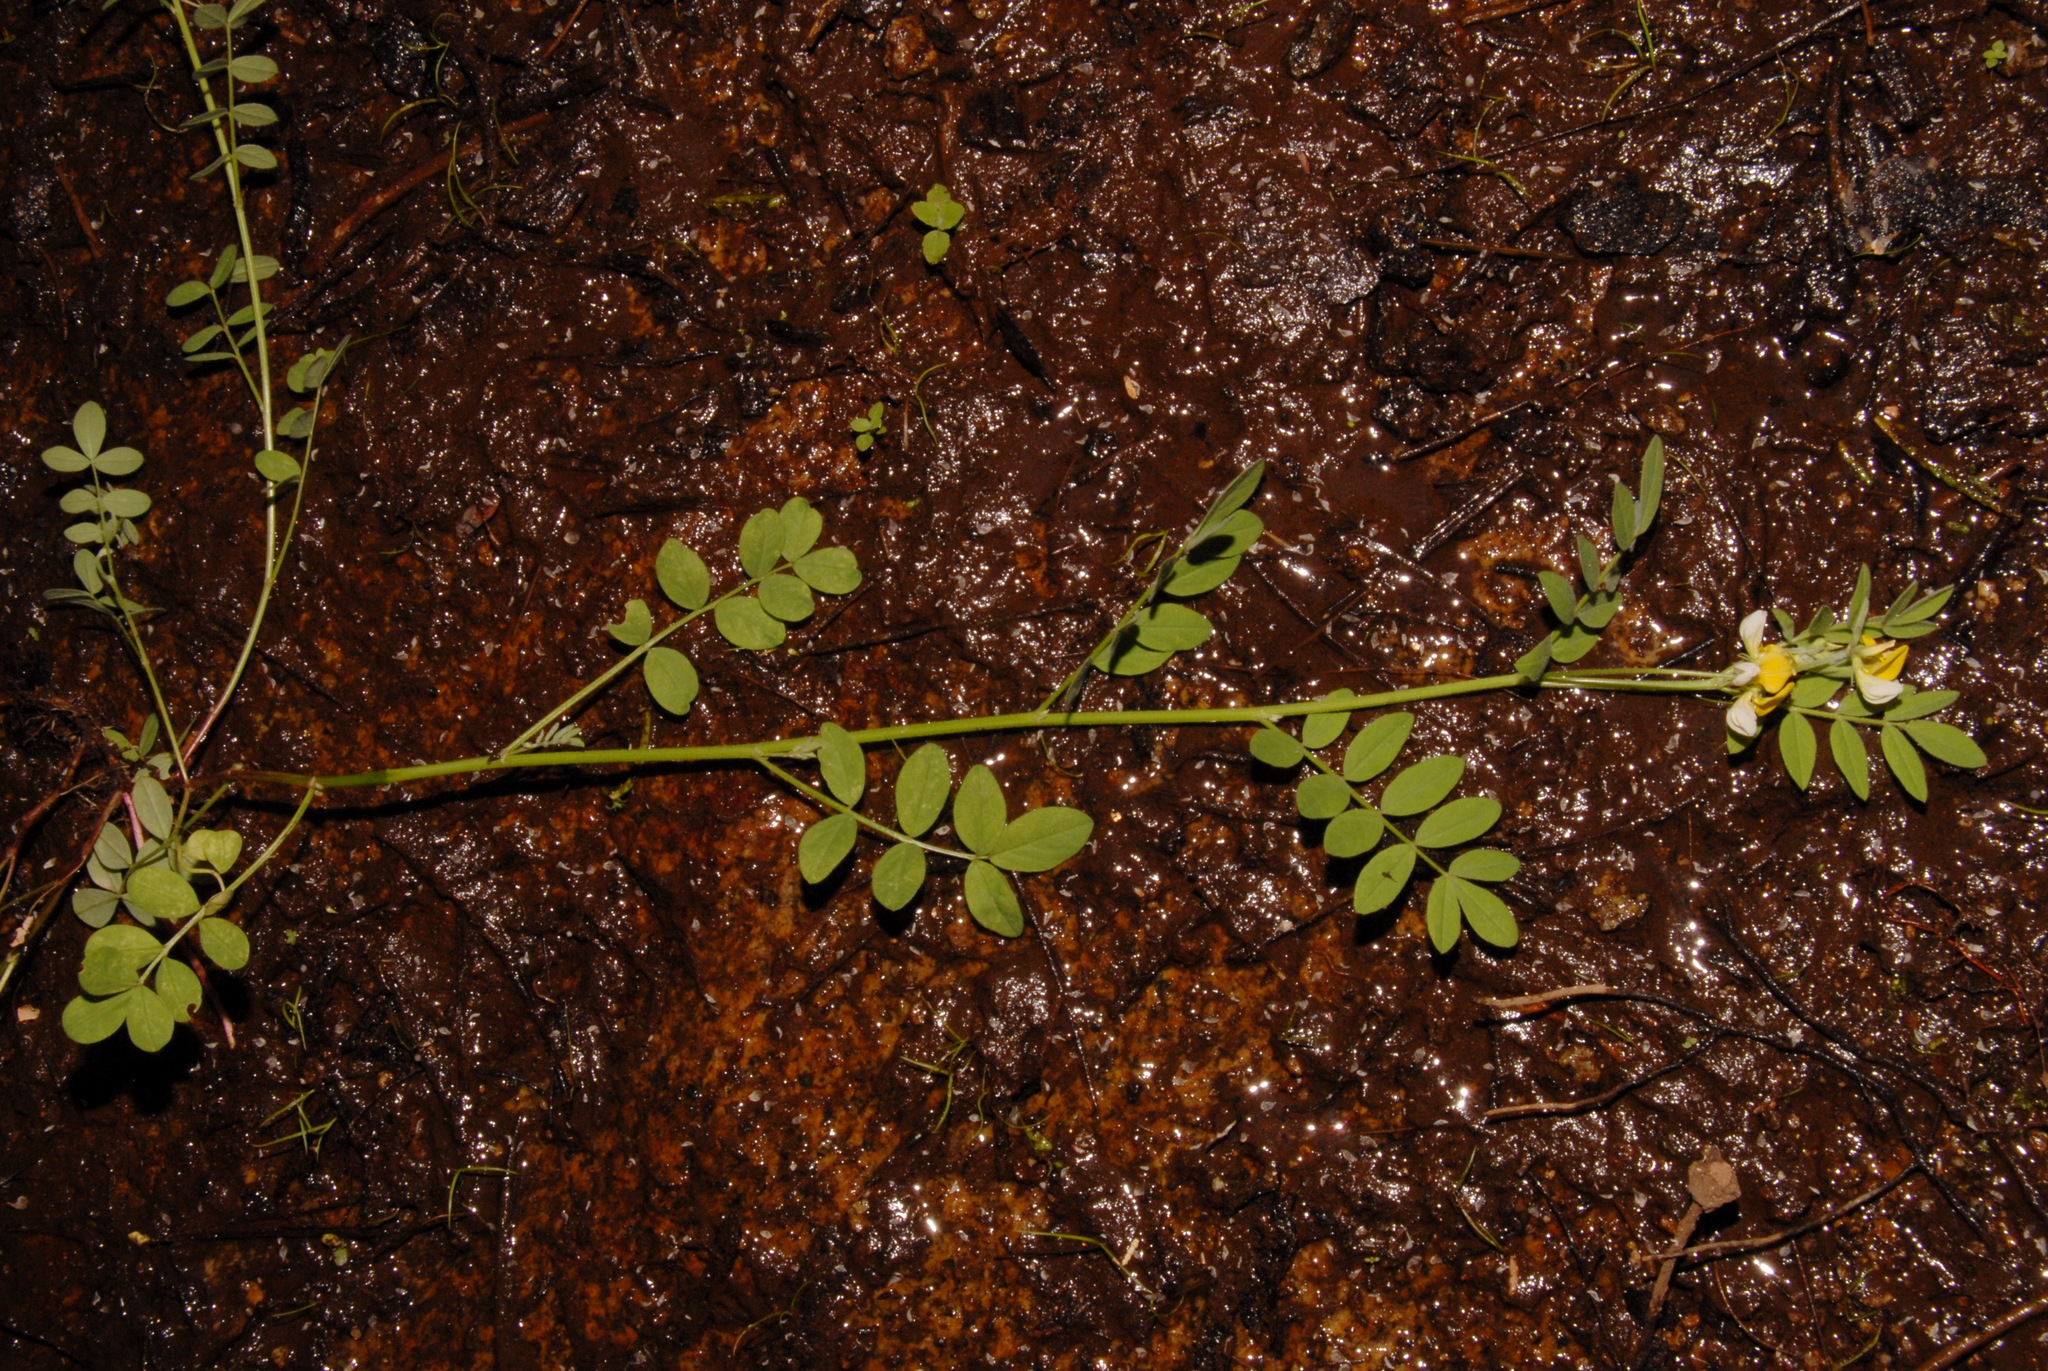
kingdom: Plantae
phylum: Tracheophyta
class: Magnoliopsida
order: Fabales
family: Fabaceae
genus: Hosackia
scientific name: Hosackia oblongifolia
